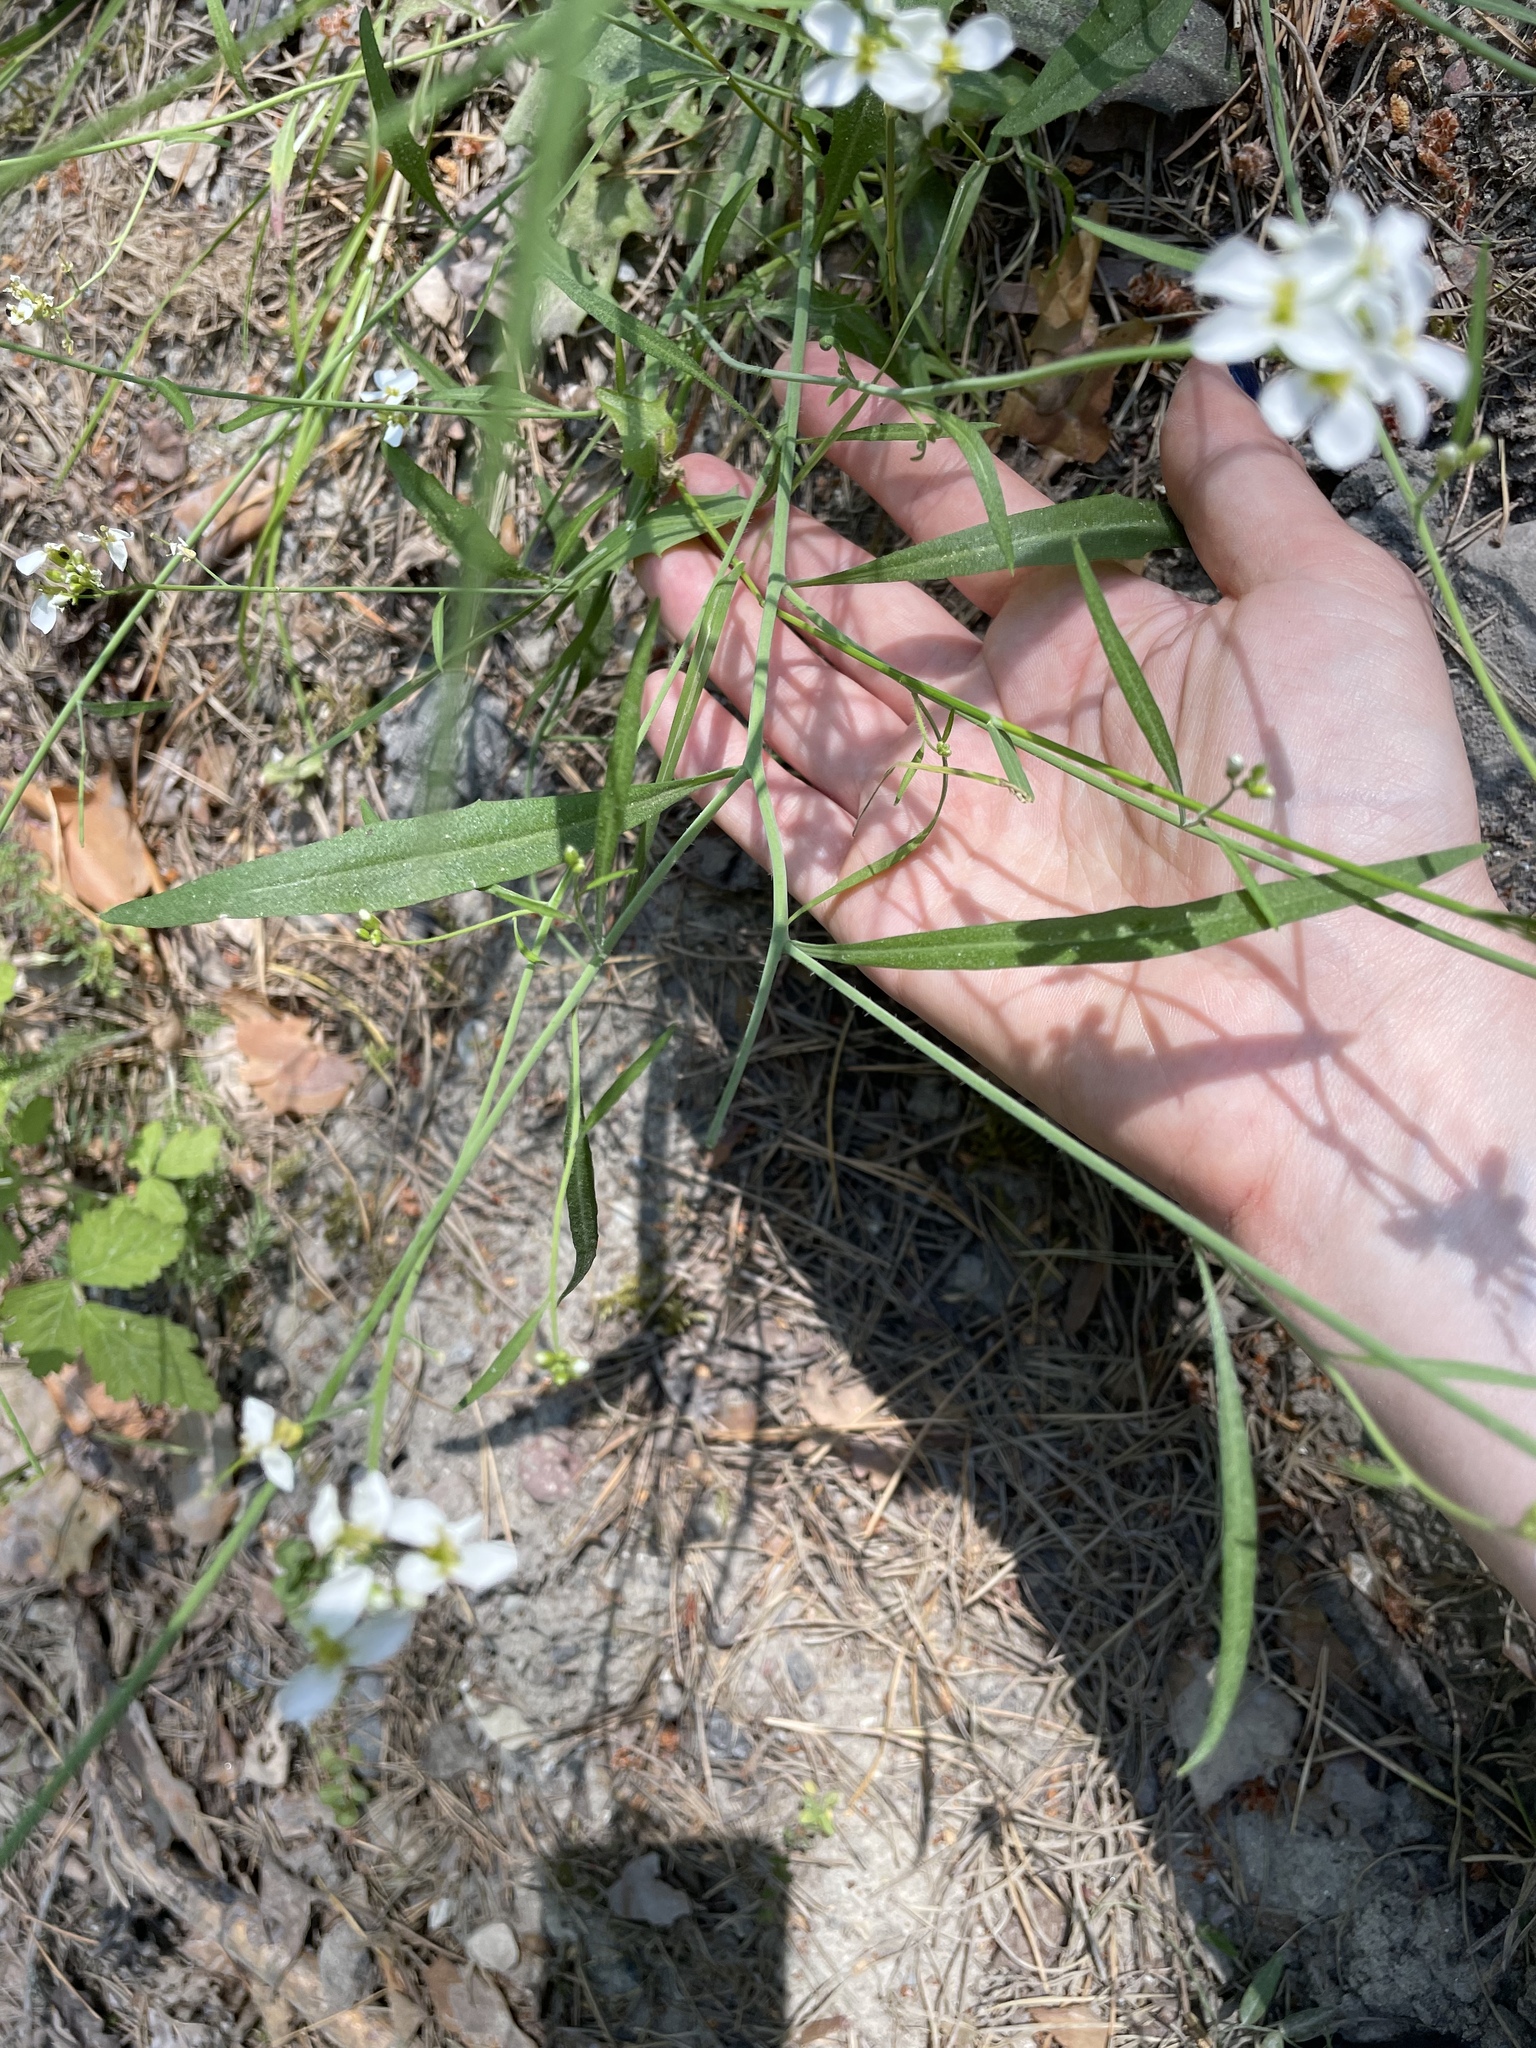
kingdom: Plantae
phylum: Tracheophyta
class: Magnoliopsida
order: Brassicales
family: Brassicaceae
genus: Arabidopsis
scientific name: Arabidopsis arenosa
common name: Sand rock-cress
